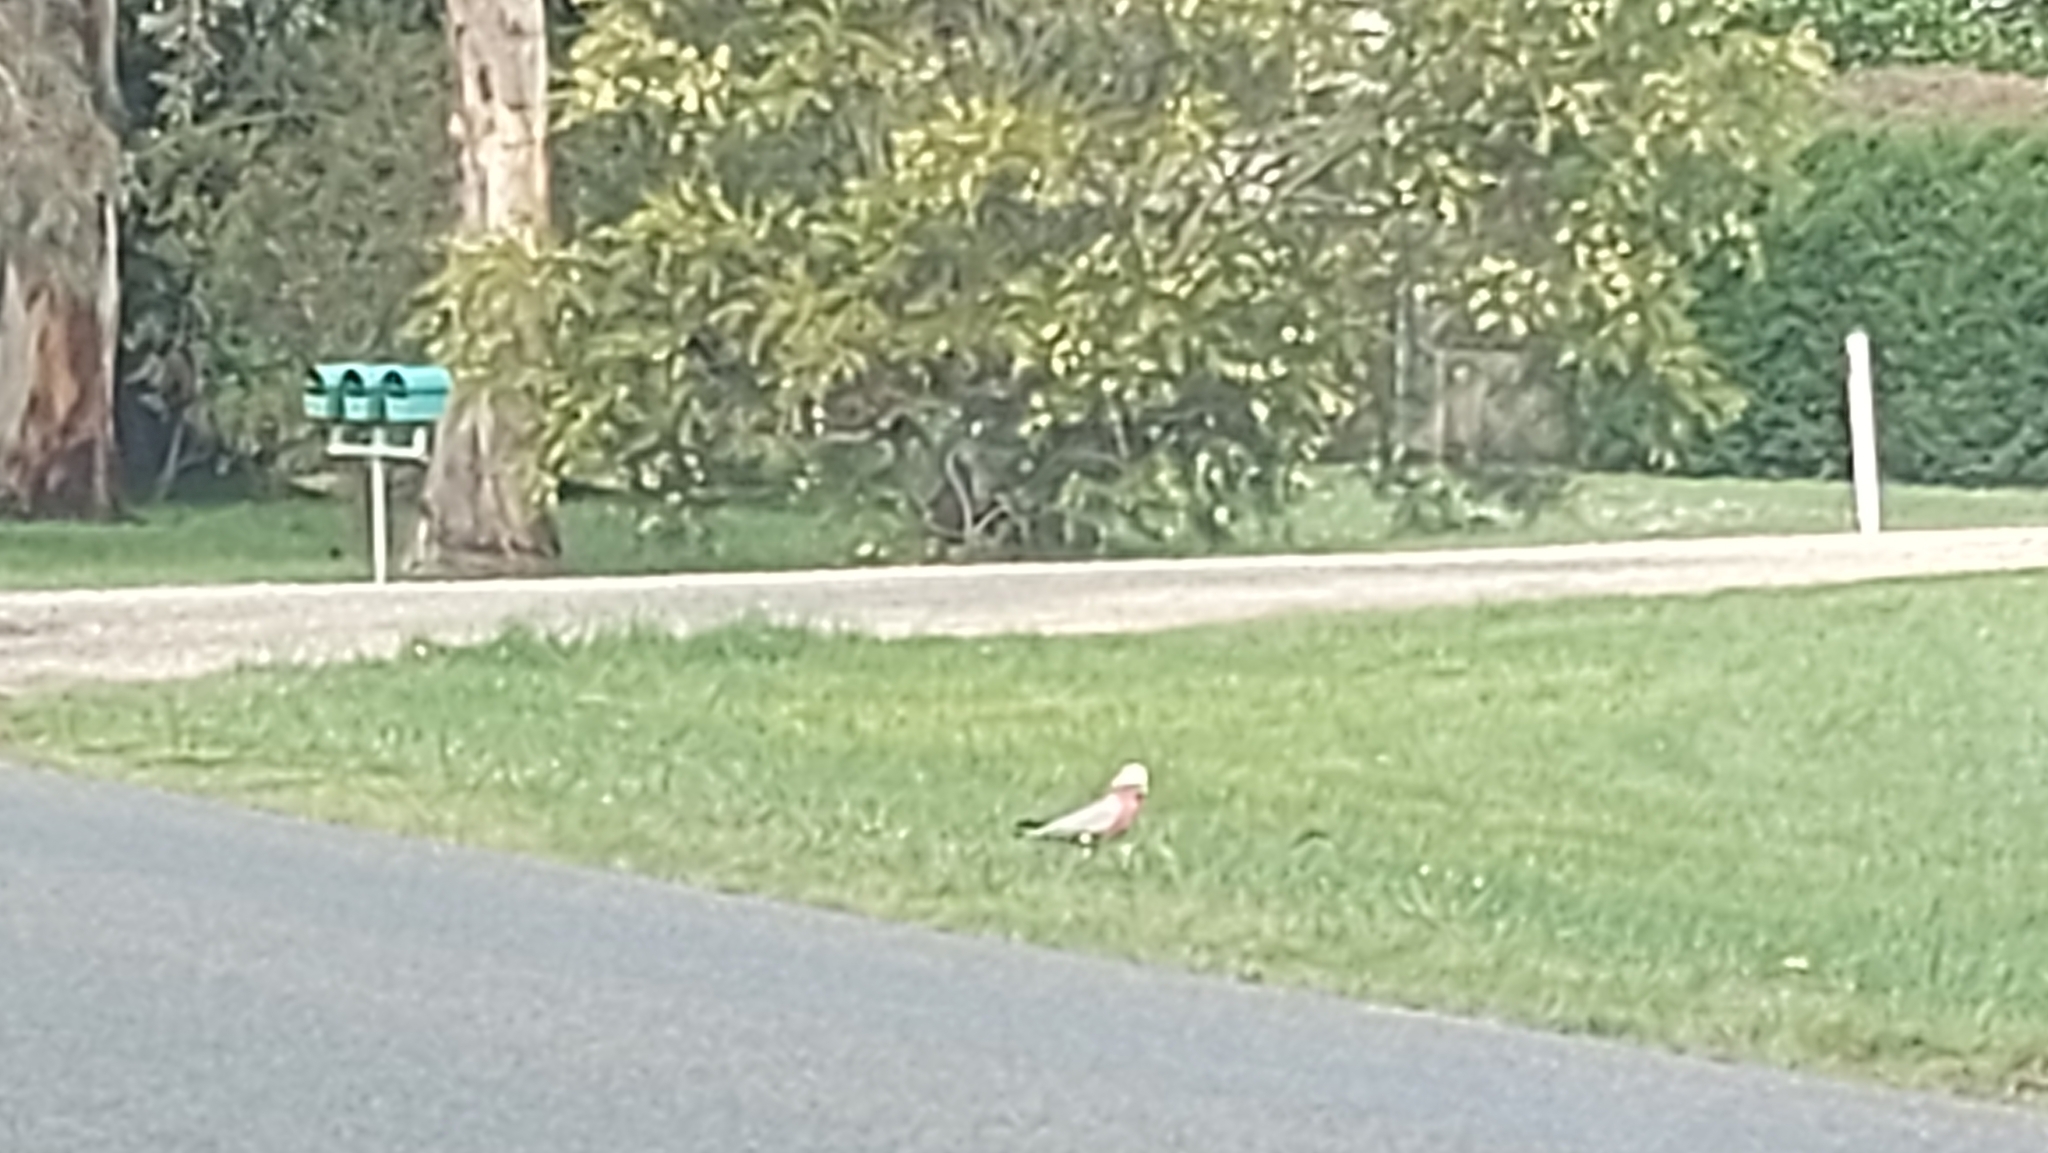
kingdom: Animalia
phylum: Chordata
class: Aves
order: Psittaciformes
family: Psittacidae
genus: Eolophus
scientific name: Eolophus roseicapilla
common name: Galah
